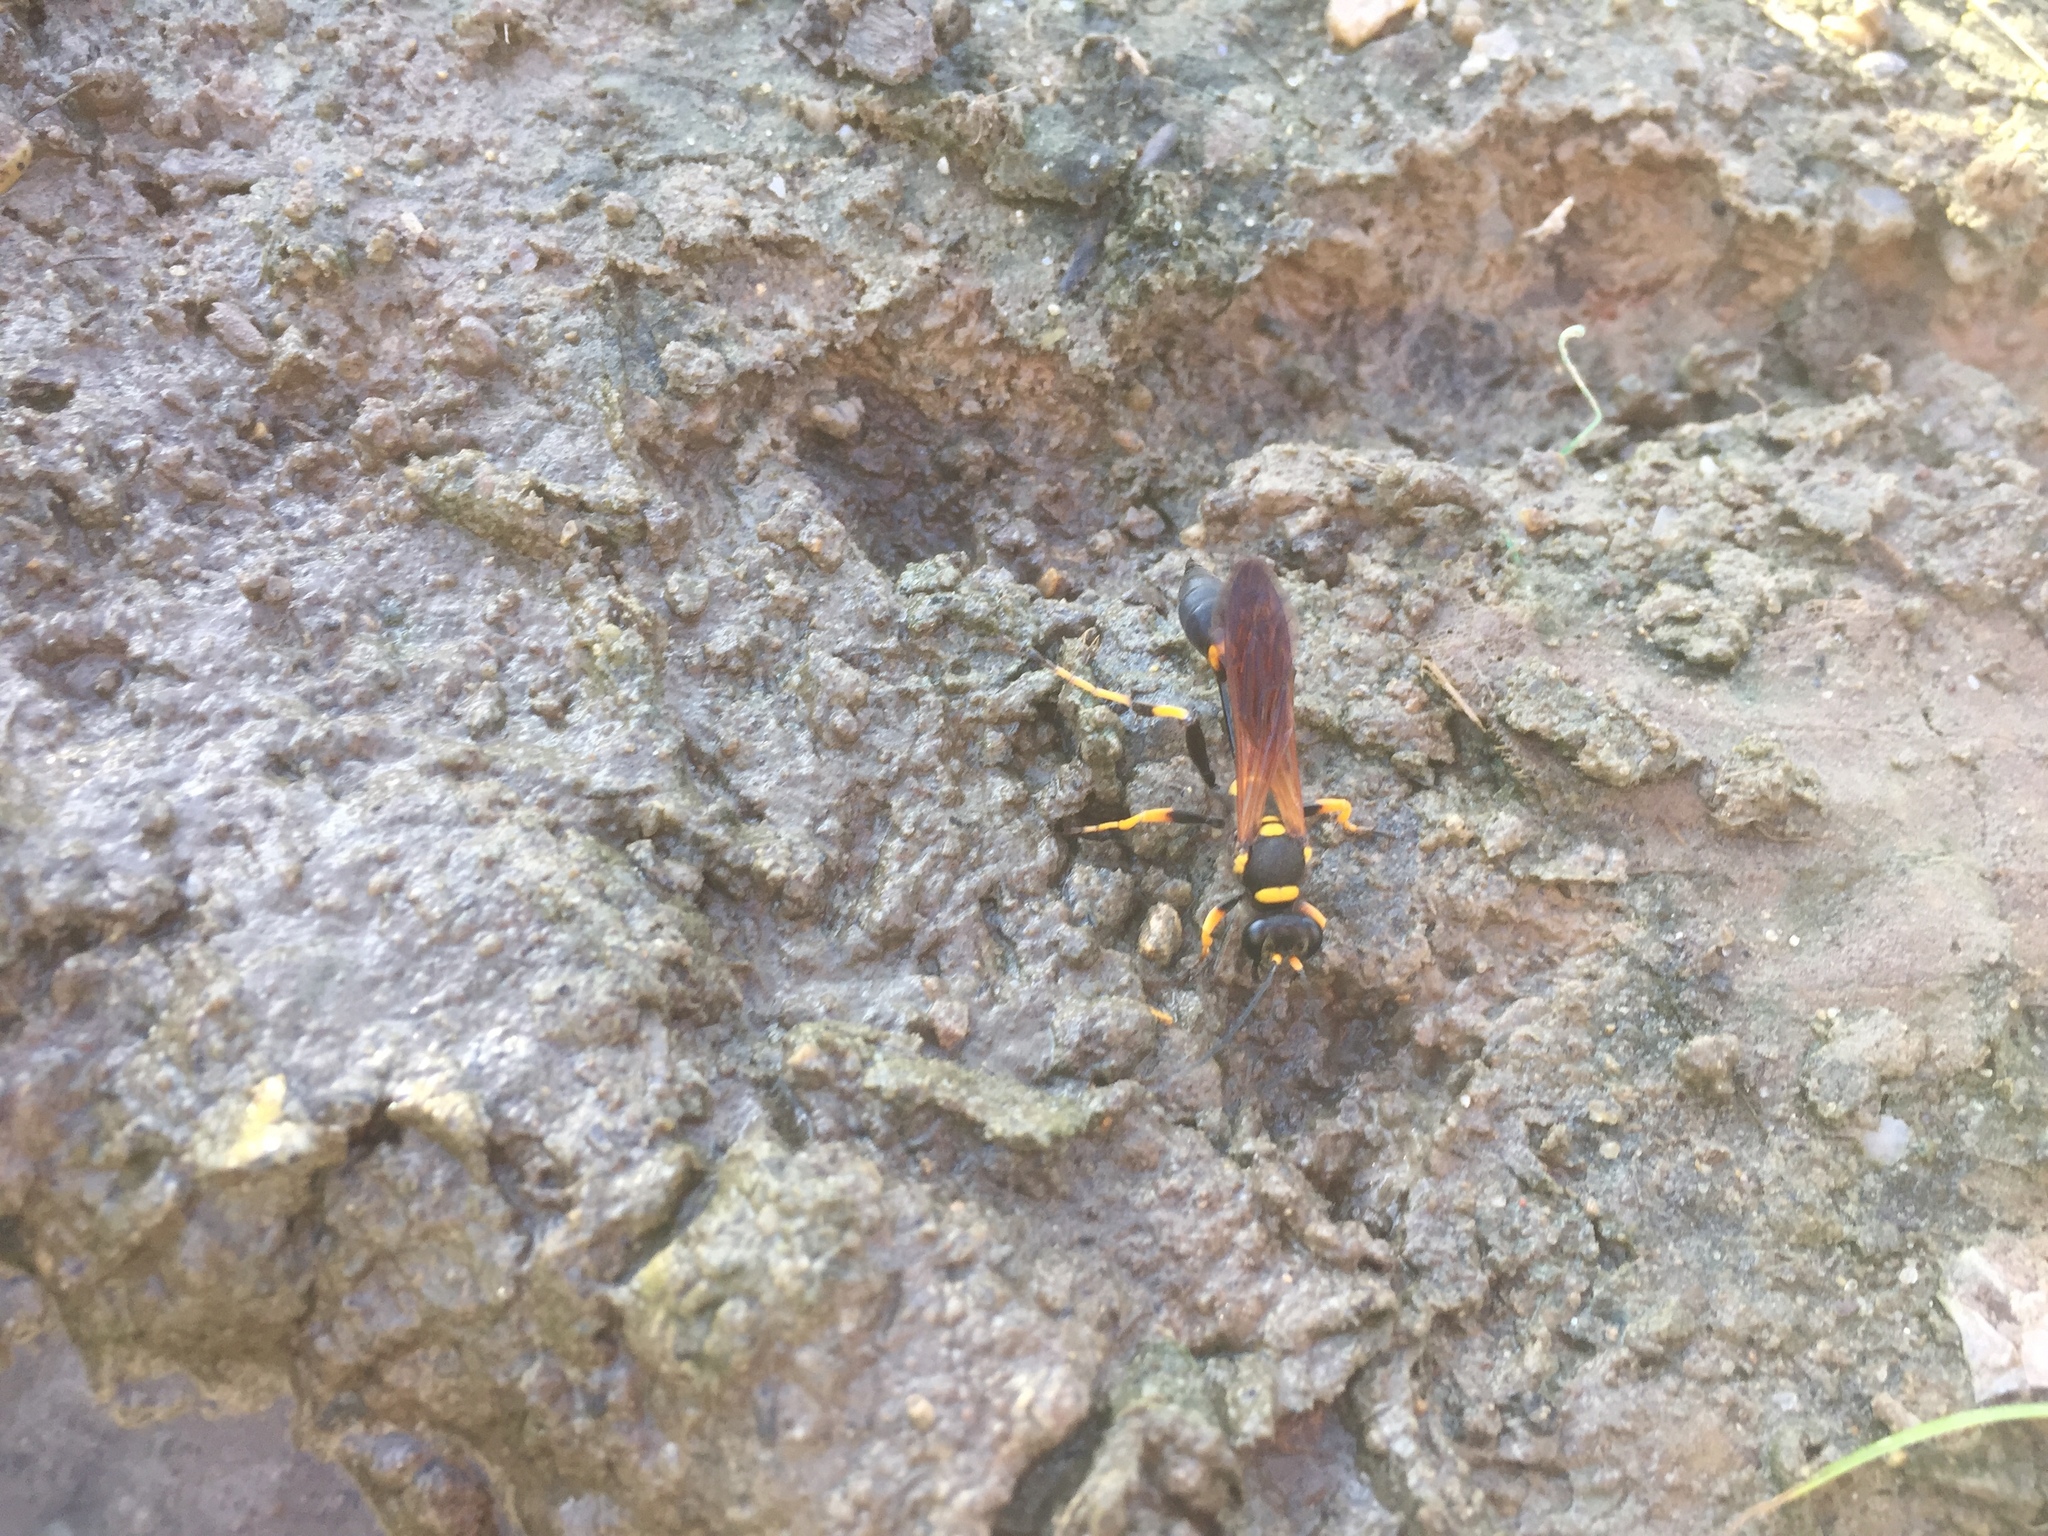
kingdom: Animalia
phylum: Arthropoda
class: Insecta
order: Hymenoptera
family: Sphecidae
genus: Sceliphron
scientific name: Sceliphron caementarium
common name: Mud dauber
